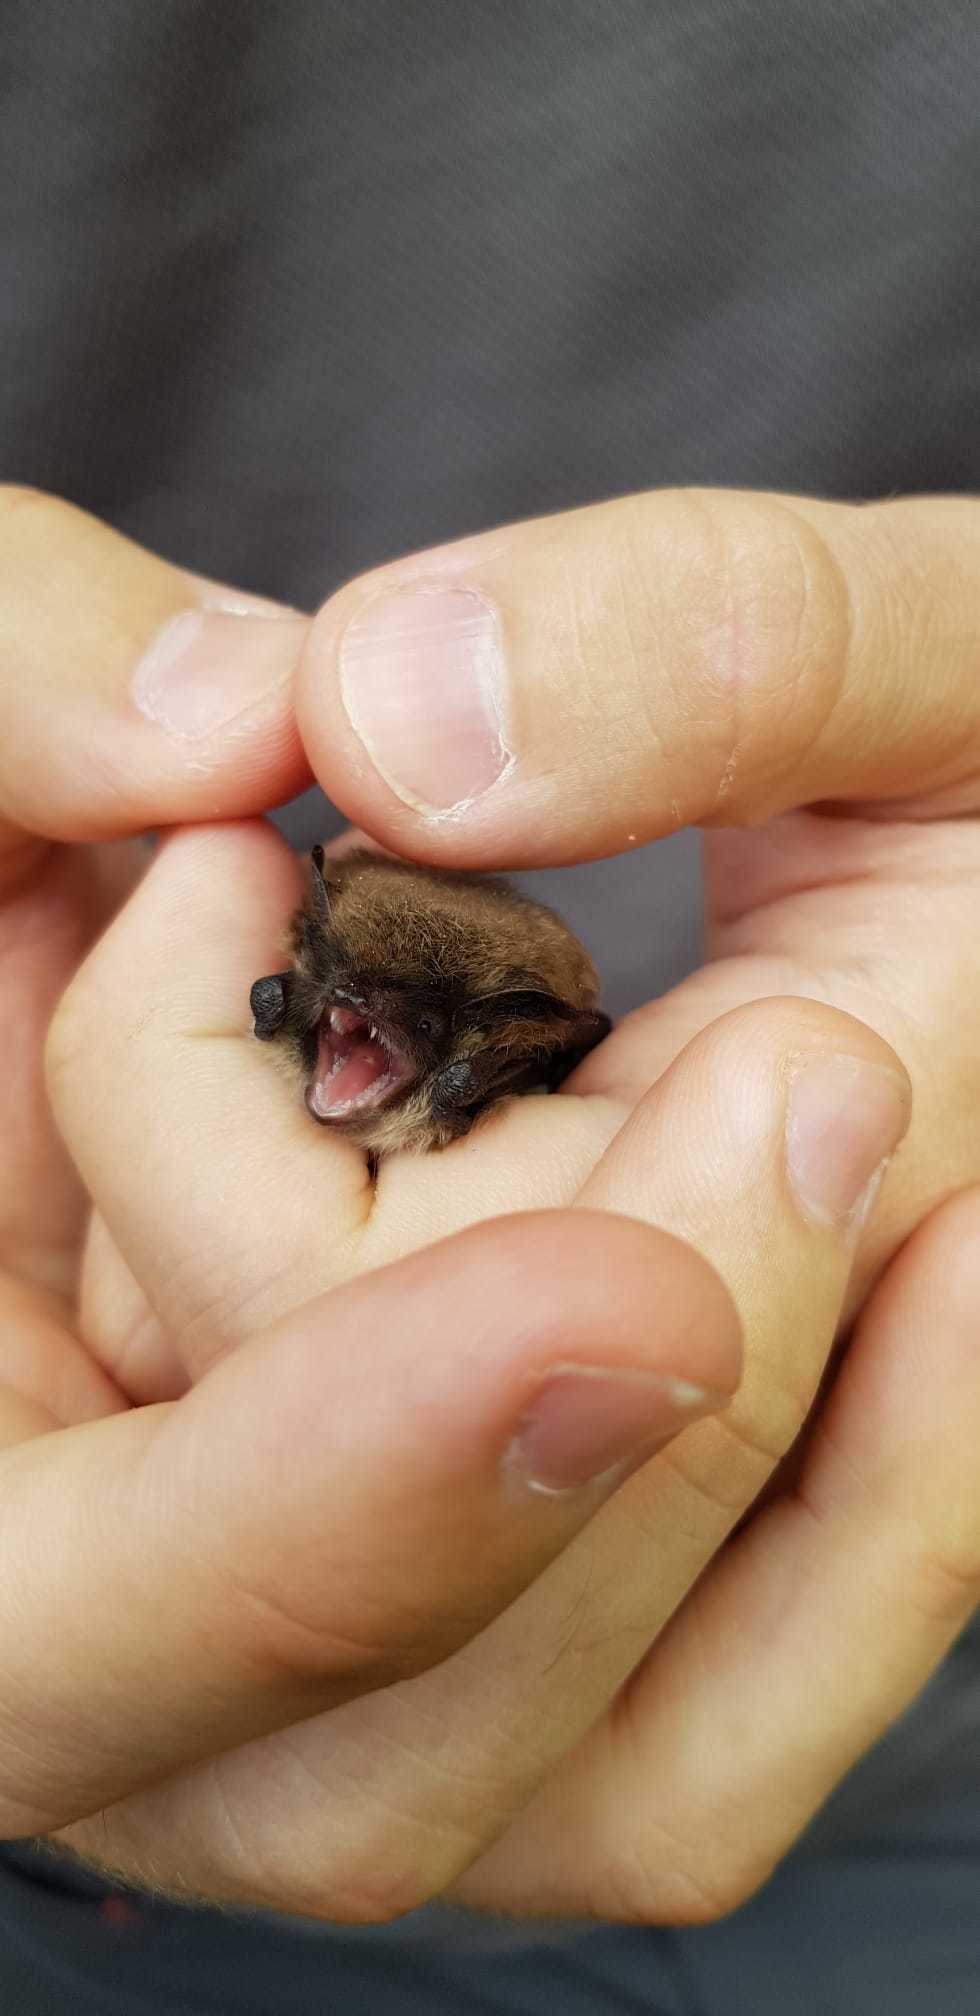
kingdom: Animalia
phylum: Chordata
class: Mammalia
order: Chiroptera
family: Vespertilionidae
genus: Myotis
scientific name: Myotis mystacinus
